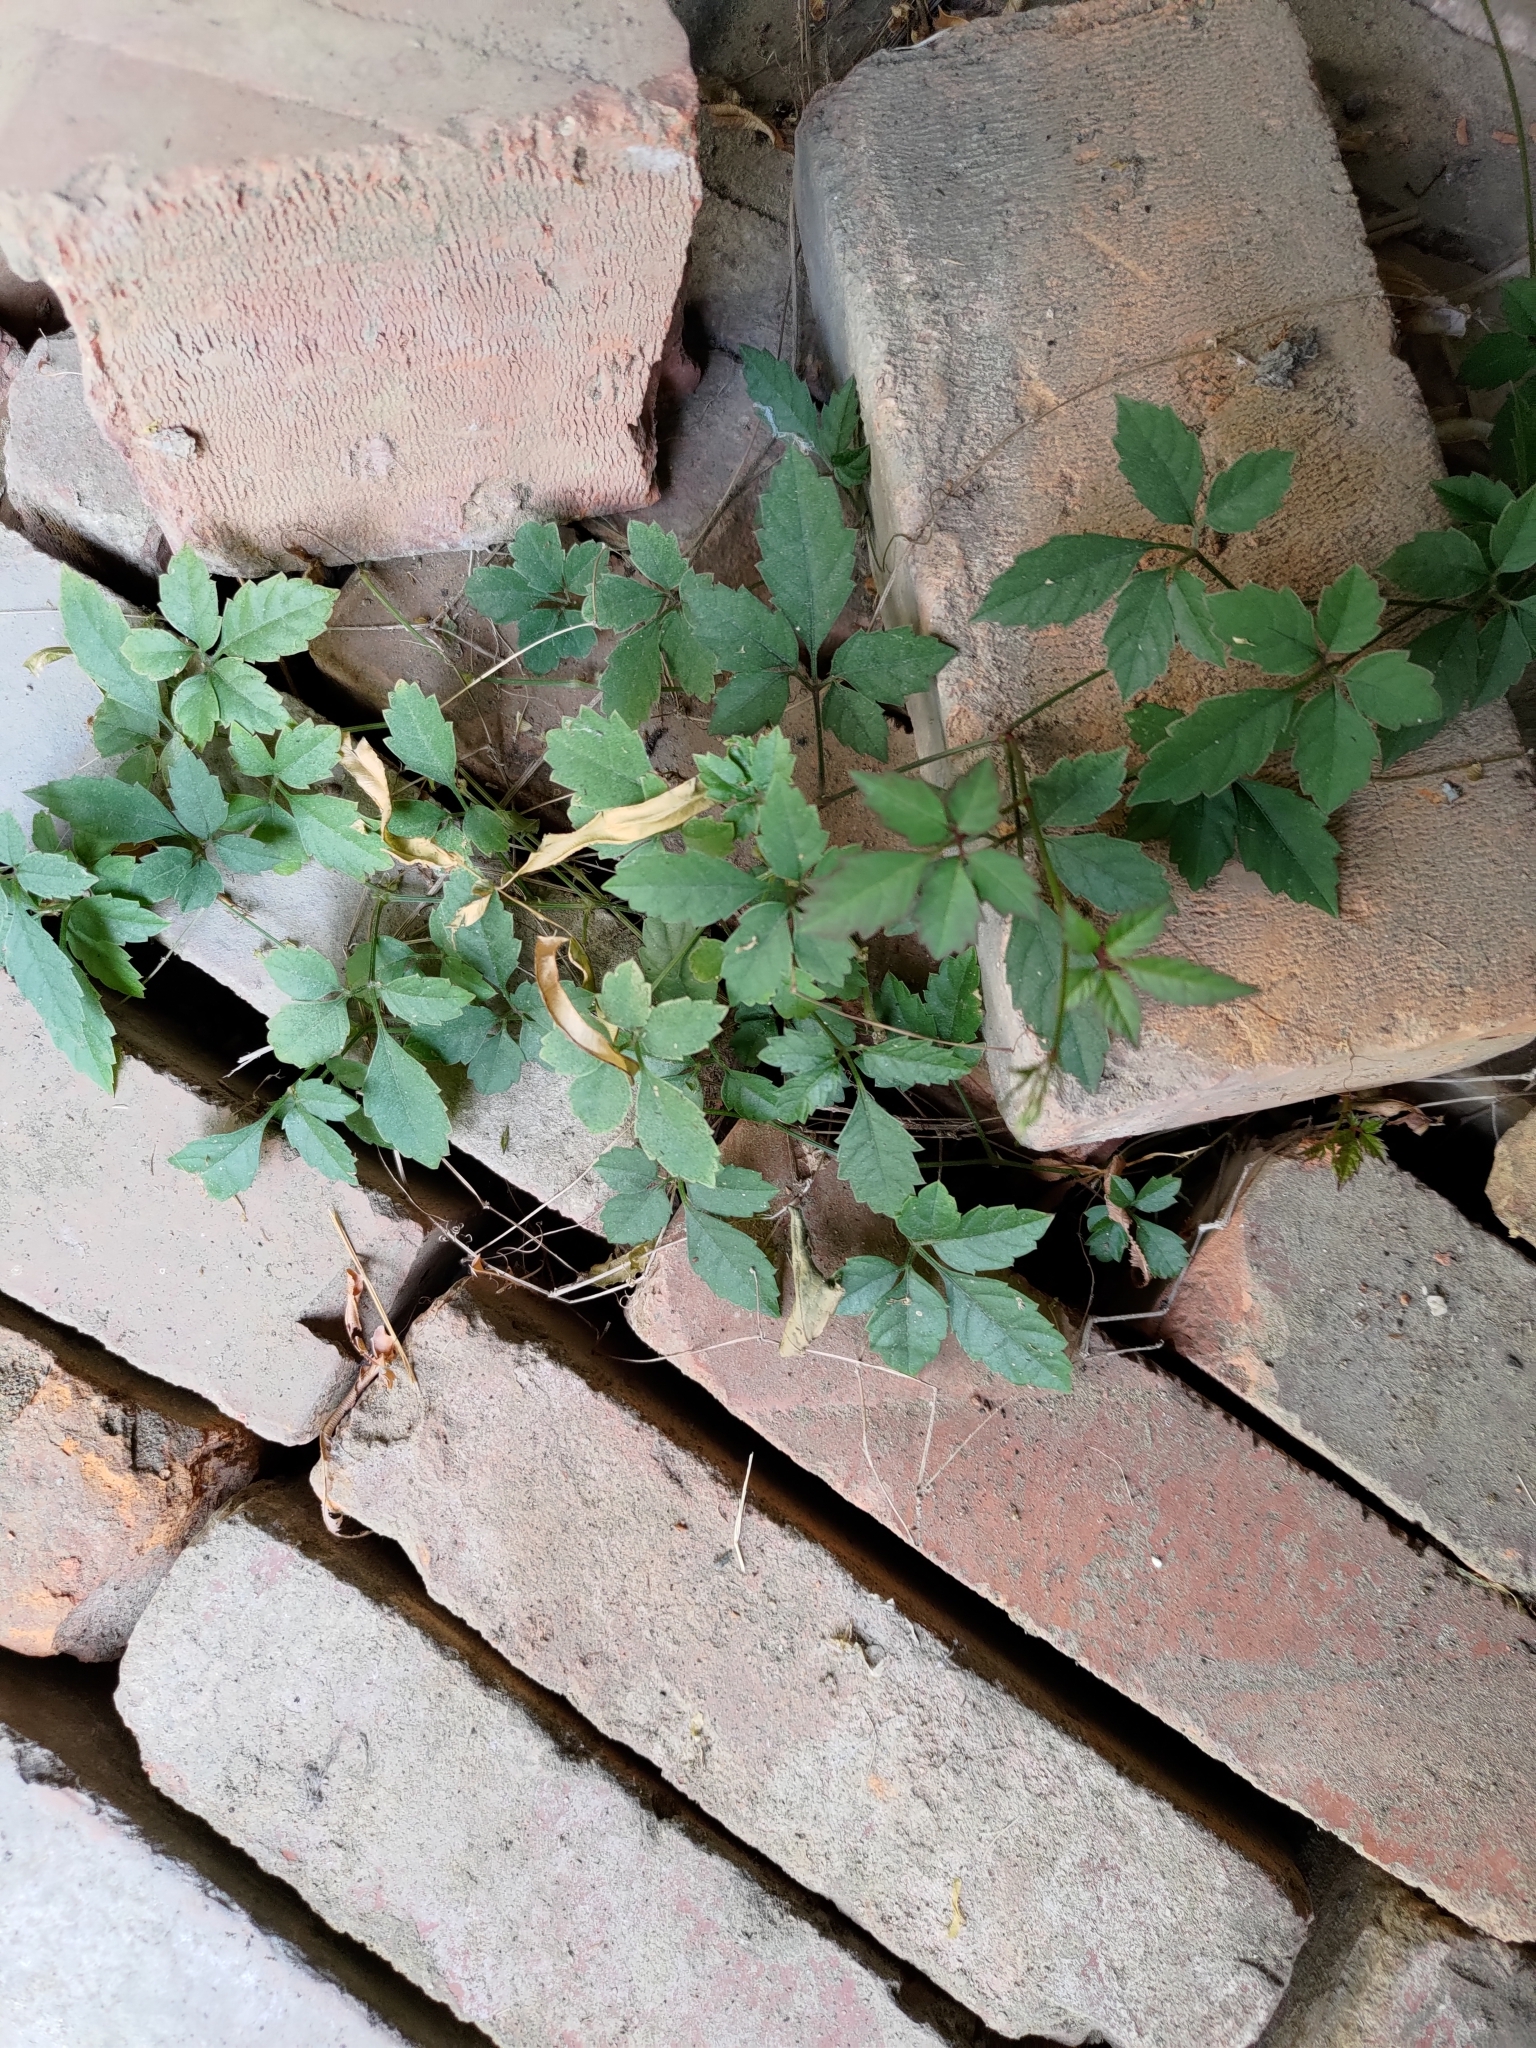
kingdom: Plantae
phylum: Tracheophyta
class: Magnoliopsida
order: Vitales
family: Vitaceae
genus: Causonis
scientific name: Causonis japonica
